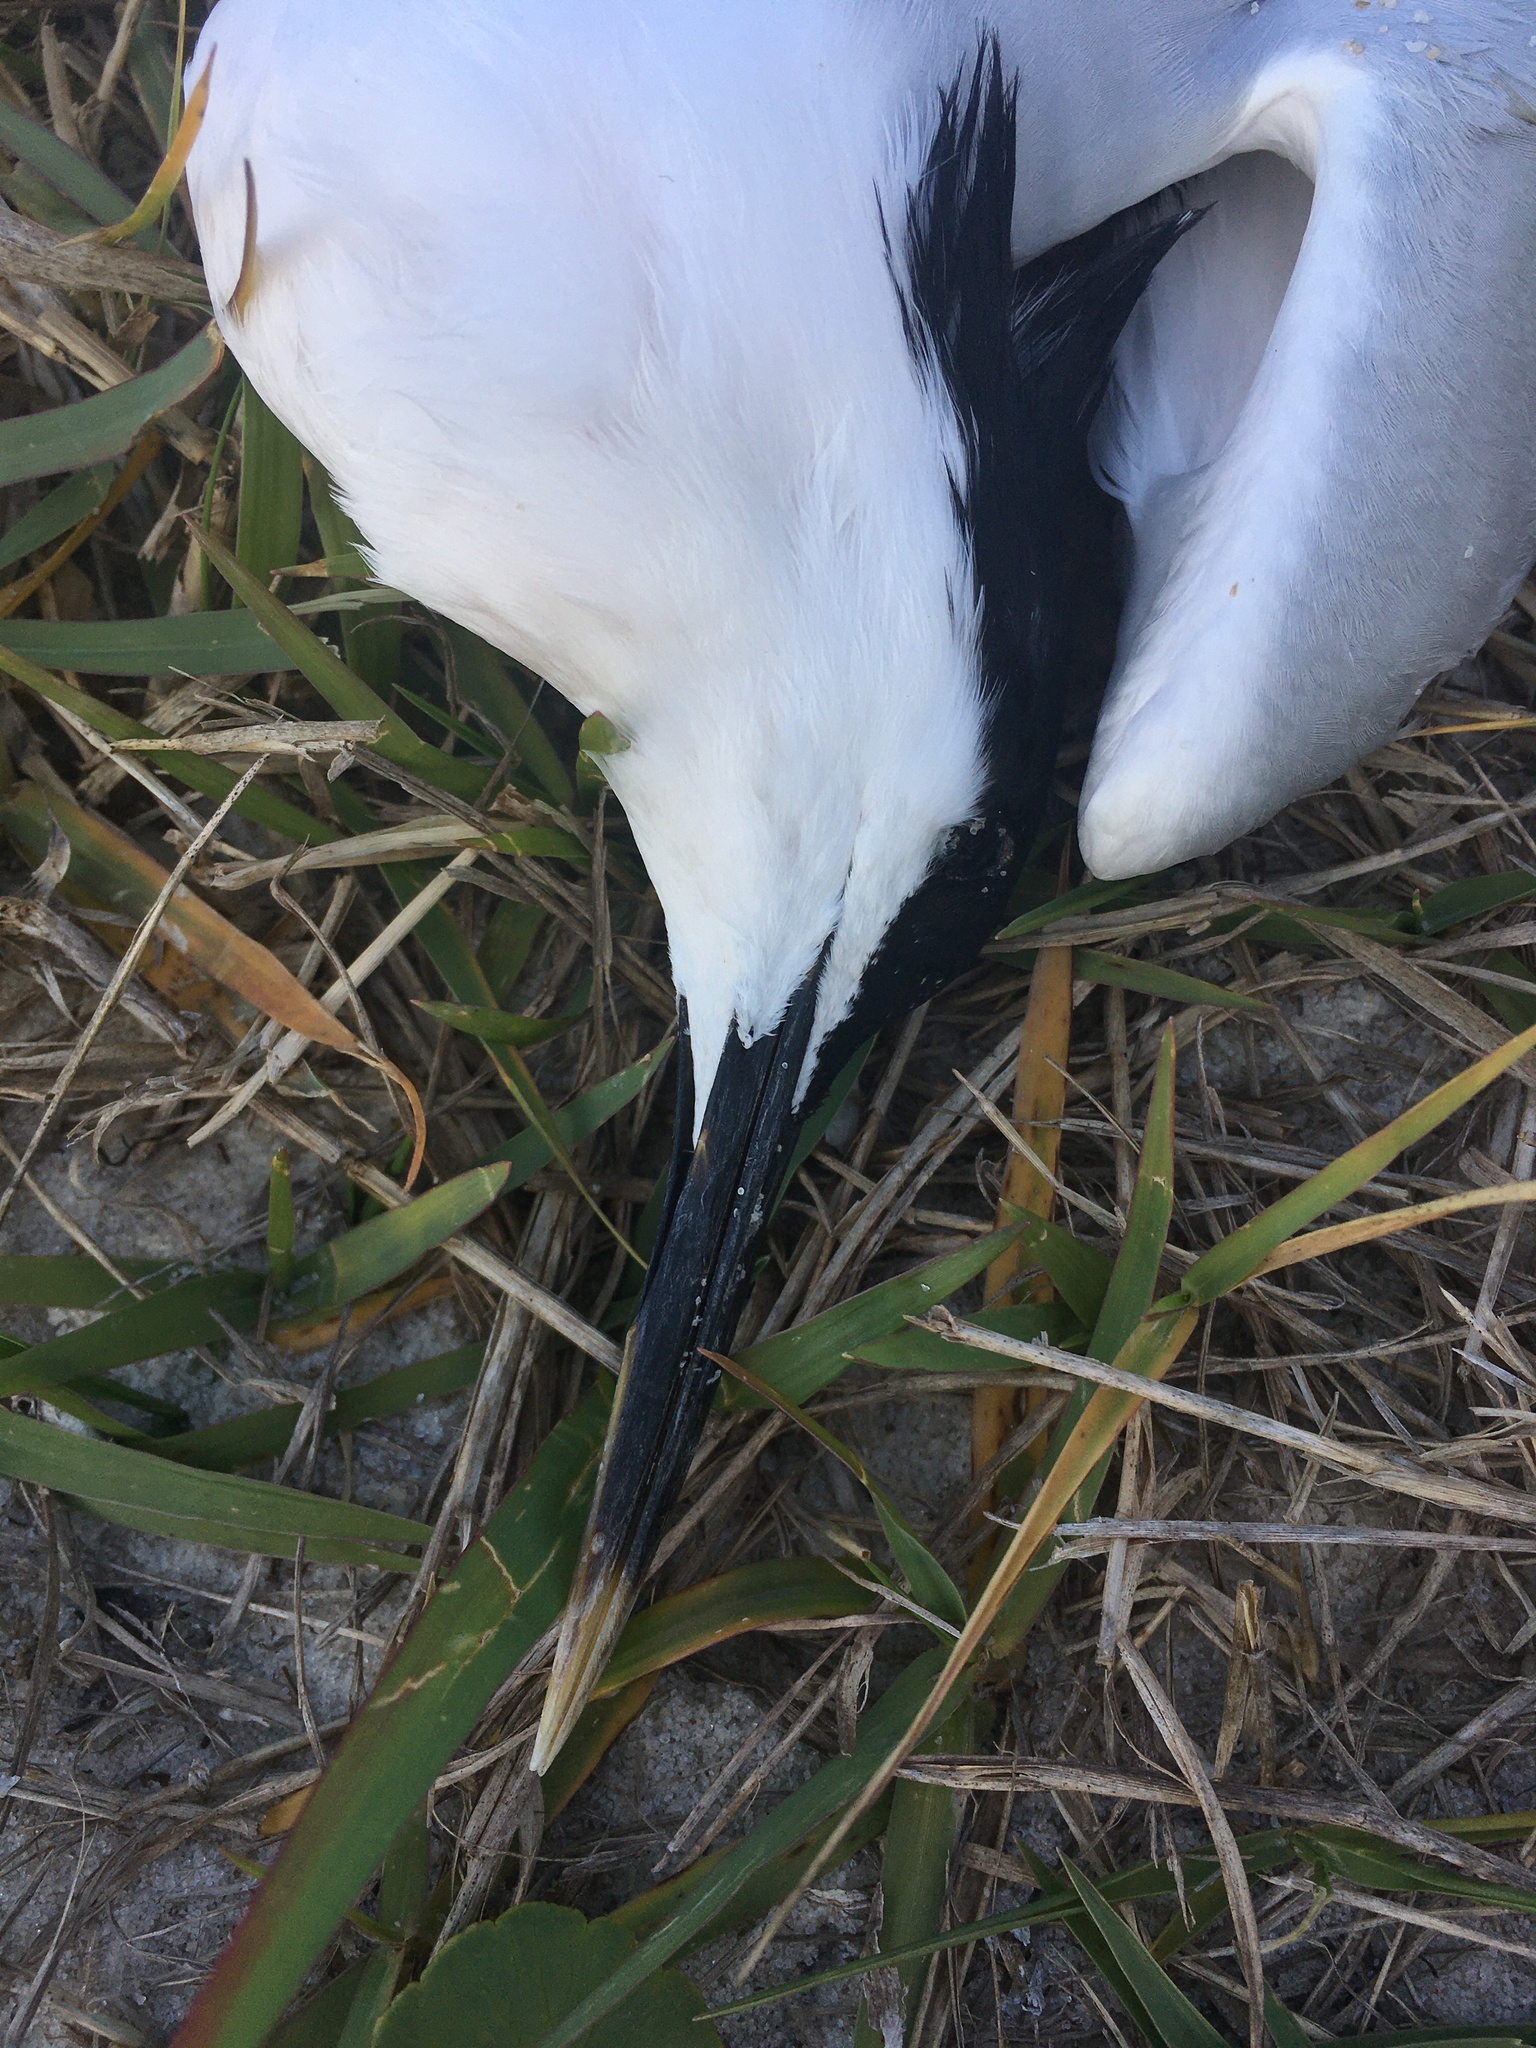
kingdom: Animalia
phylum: Chordata
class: Aves
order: Charadriiformes
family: Laridae
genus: Thalasseus
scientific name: Thalasseus sandvicensis
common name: Sandwich tern
